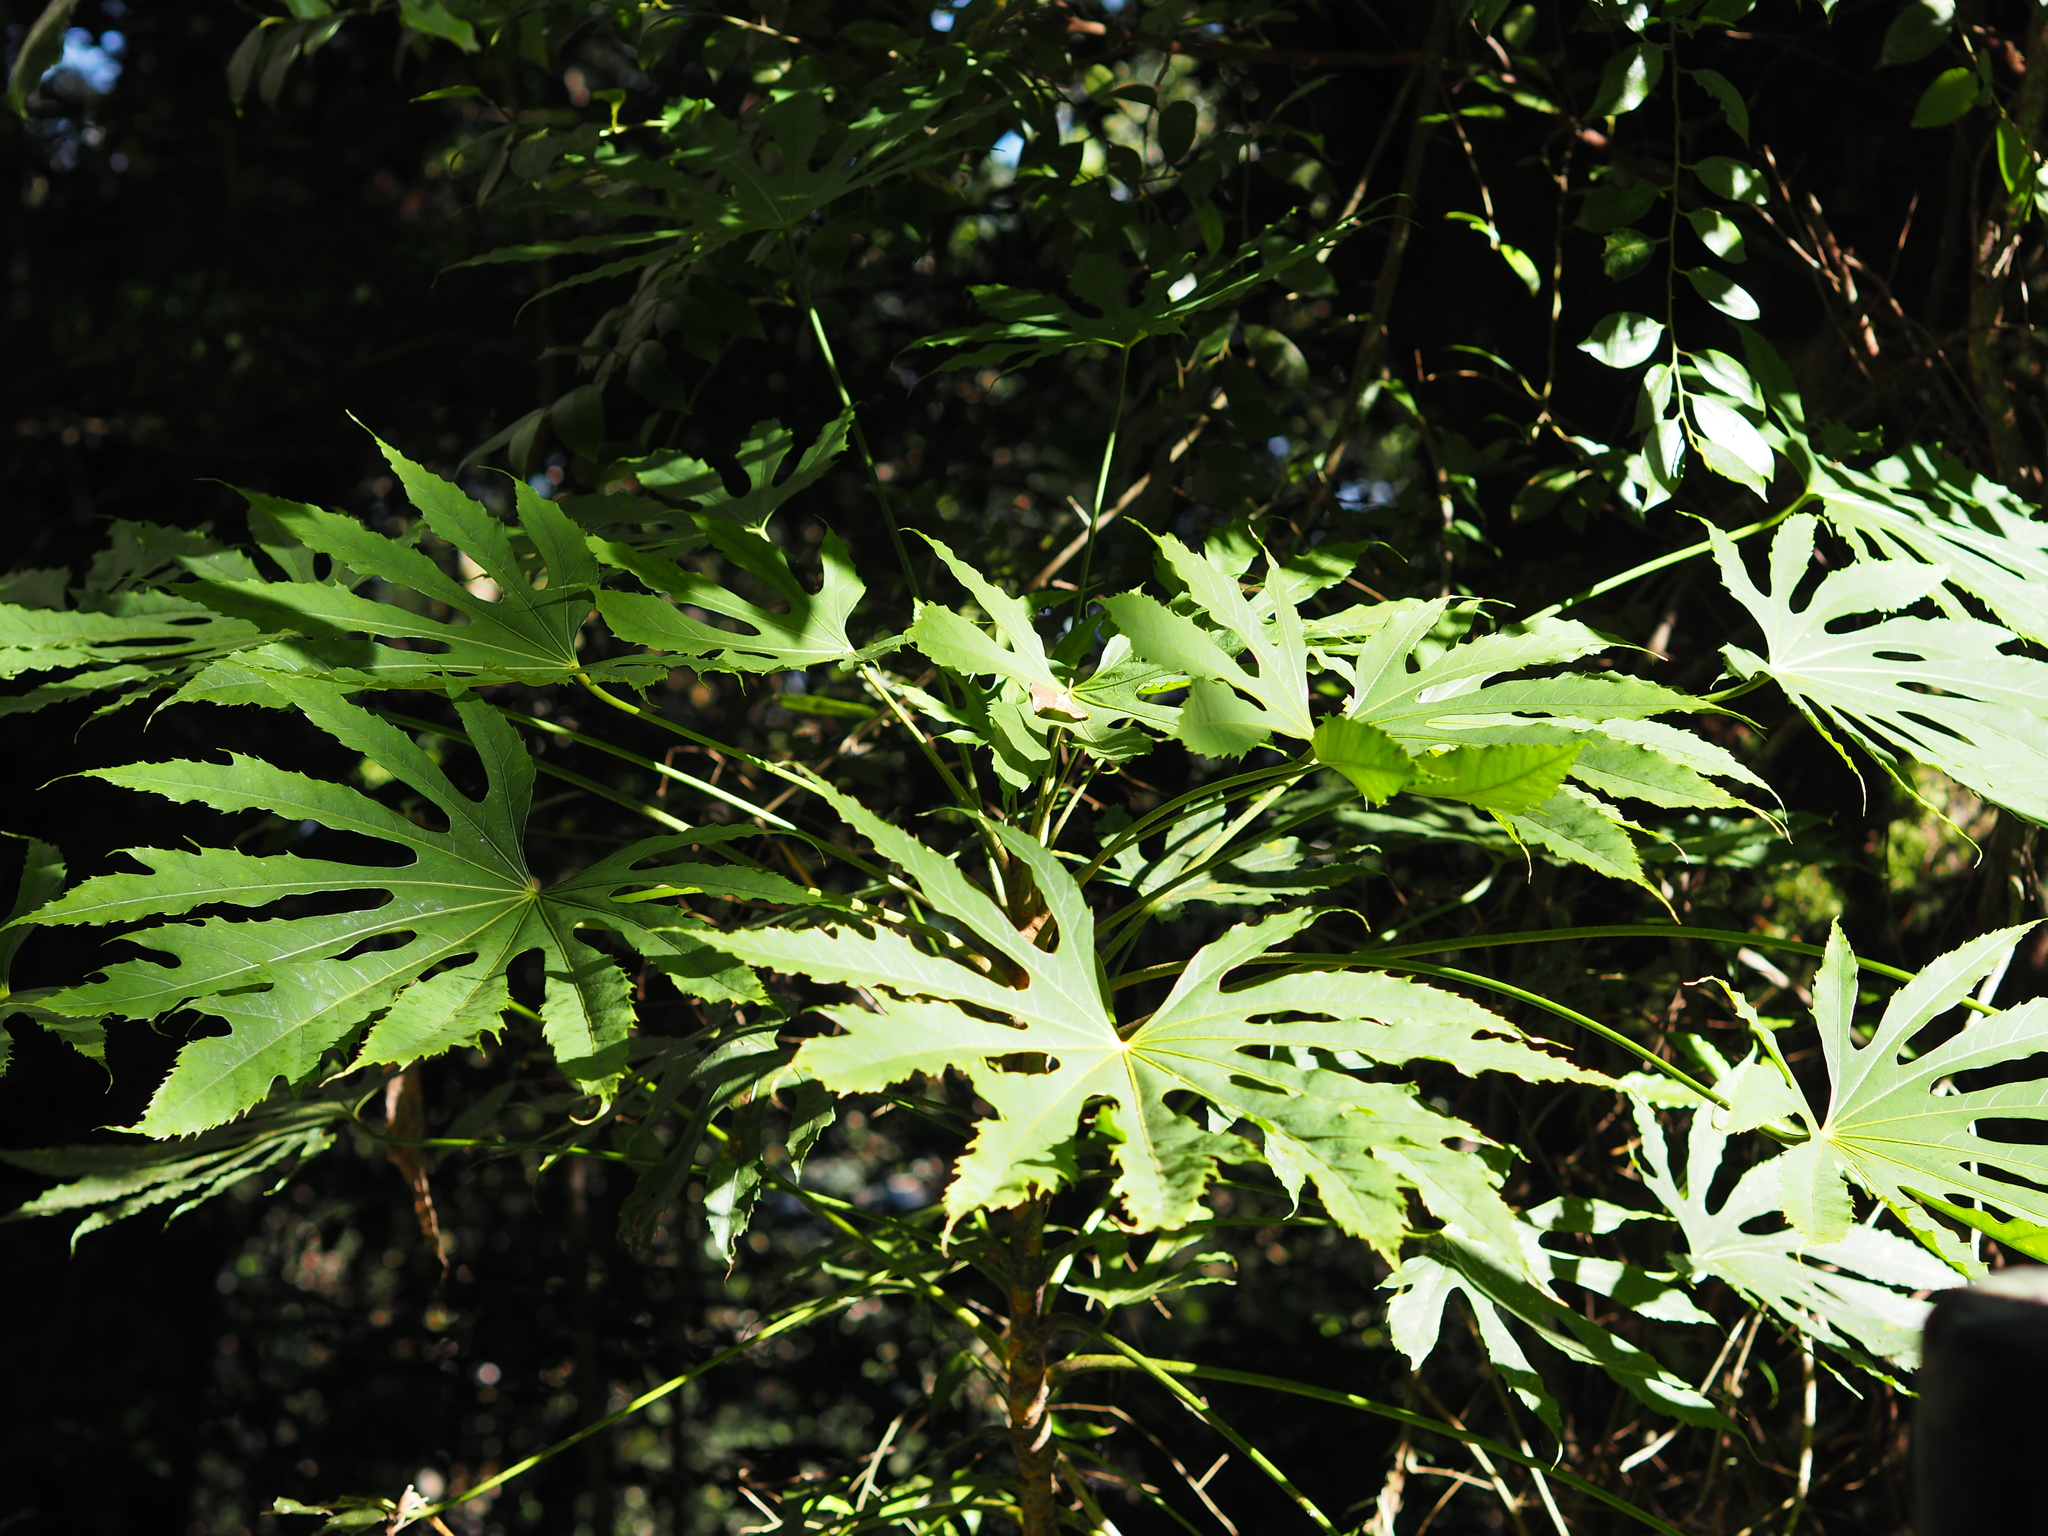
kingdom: Plantae
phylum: Tracheophyta
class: Magnoliopsida
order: Apiales
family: Araliaceae
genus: Fatsia
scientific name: Fatsia polycarpa
